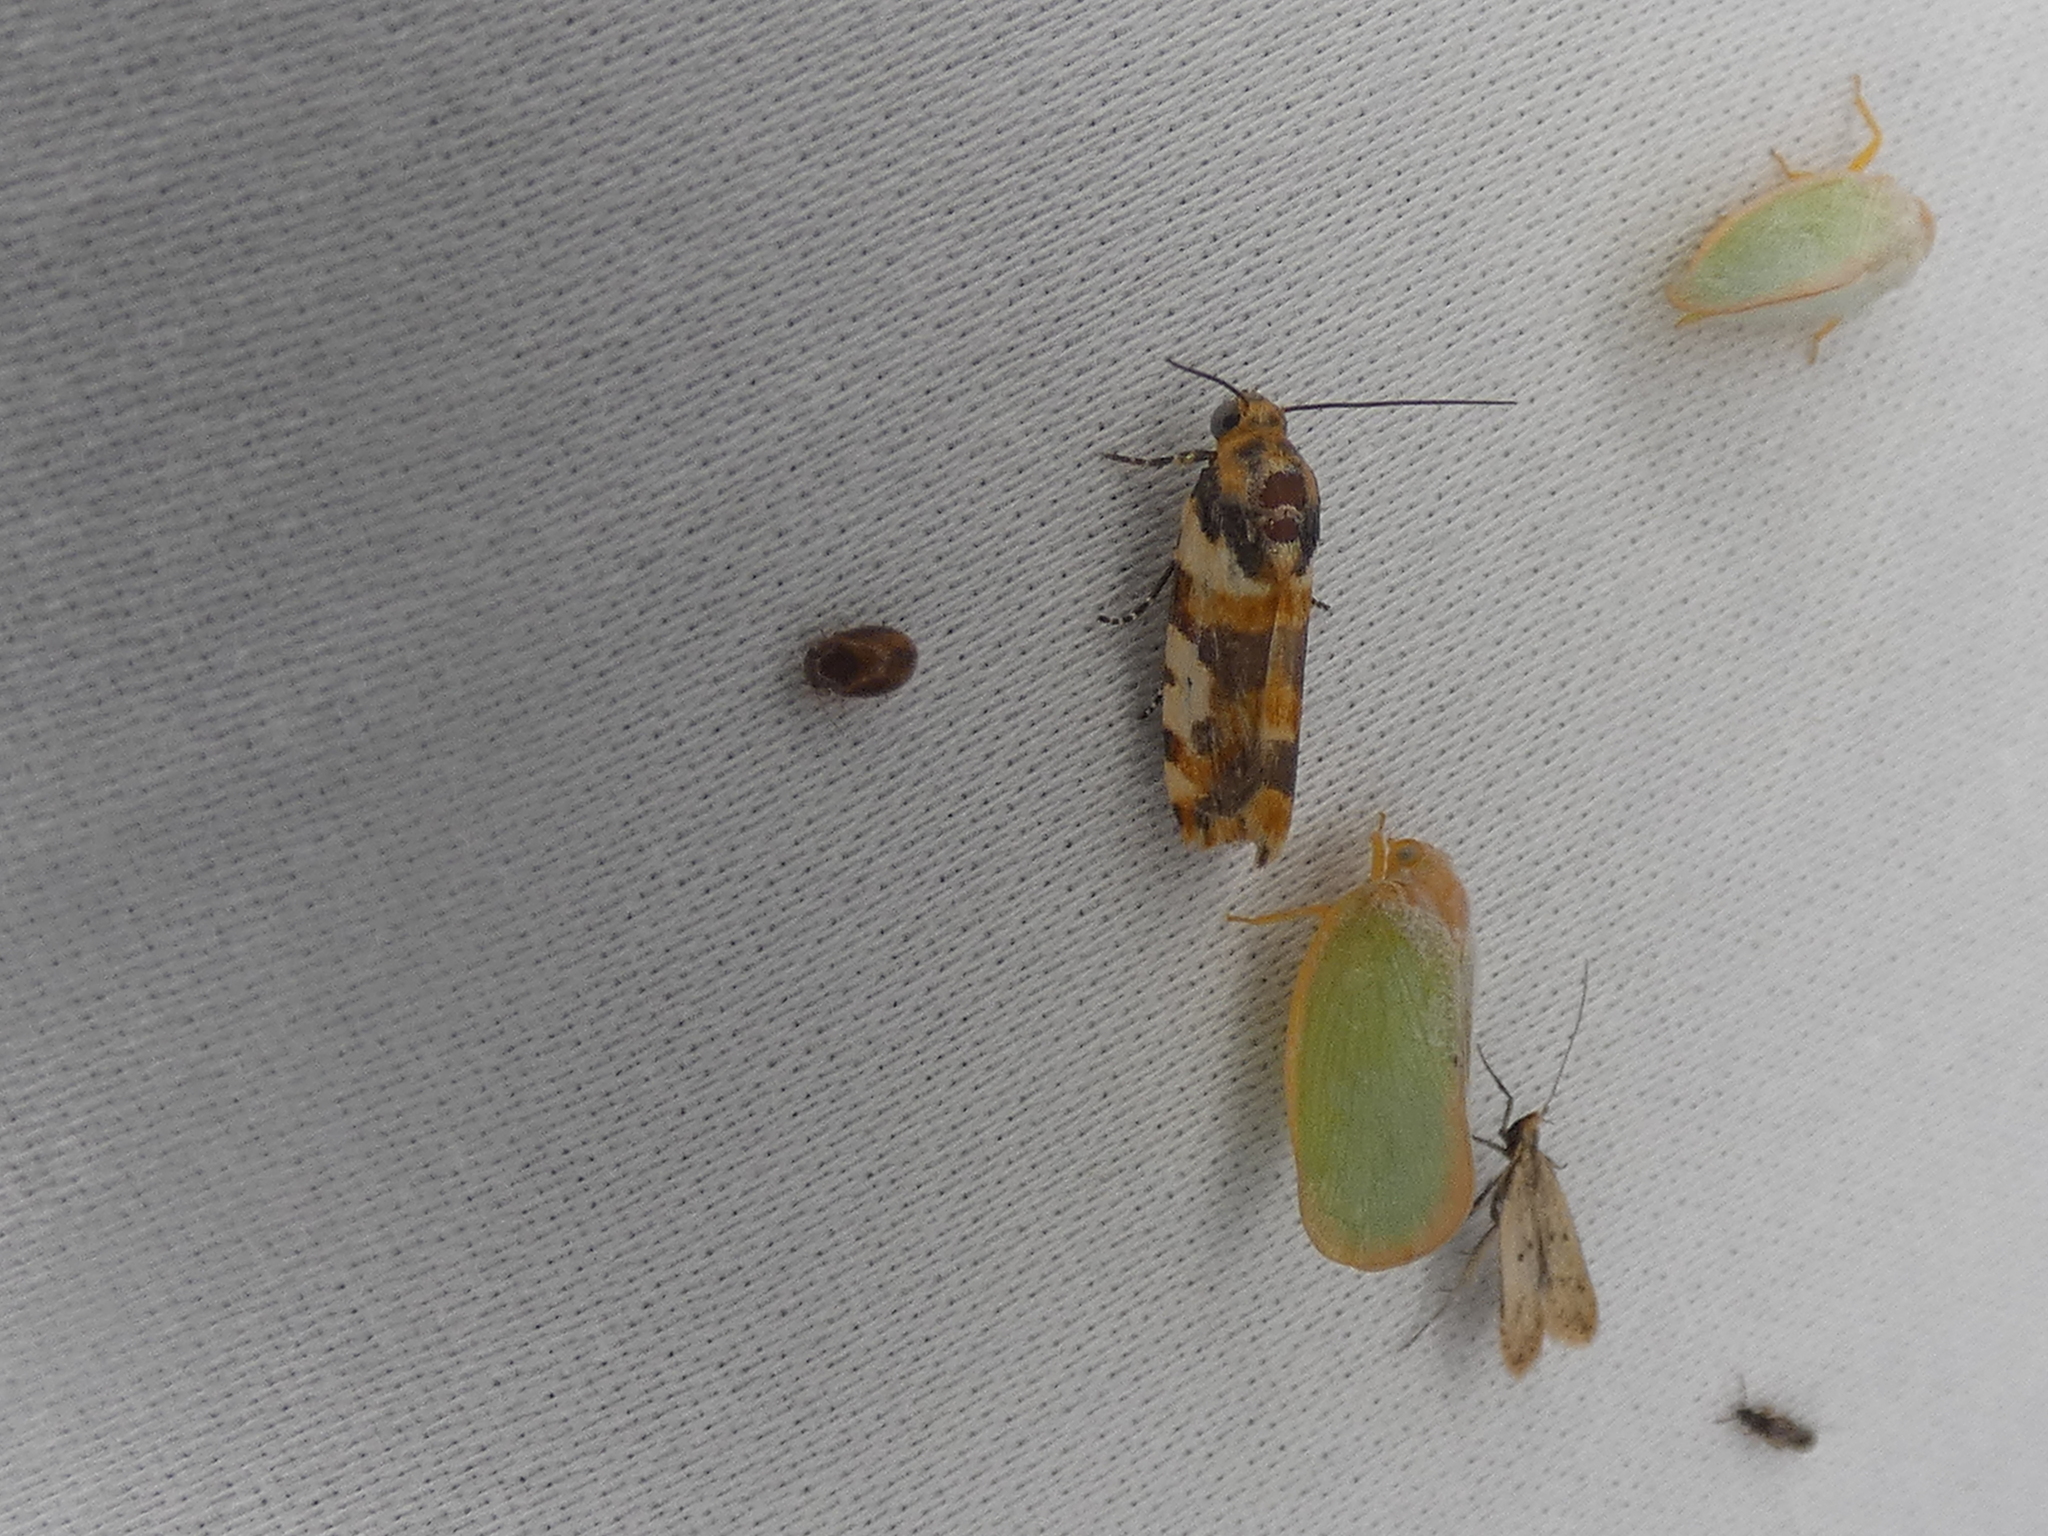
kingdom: Animalia
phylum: Arthropoda
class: Insecta
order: Lepidoptera
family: Noctuidae
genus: Acontia
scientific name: Acontia dama
